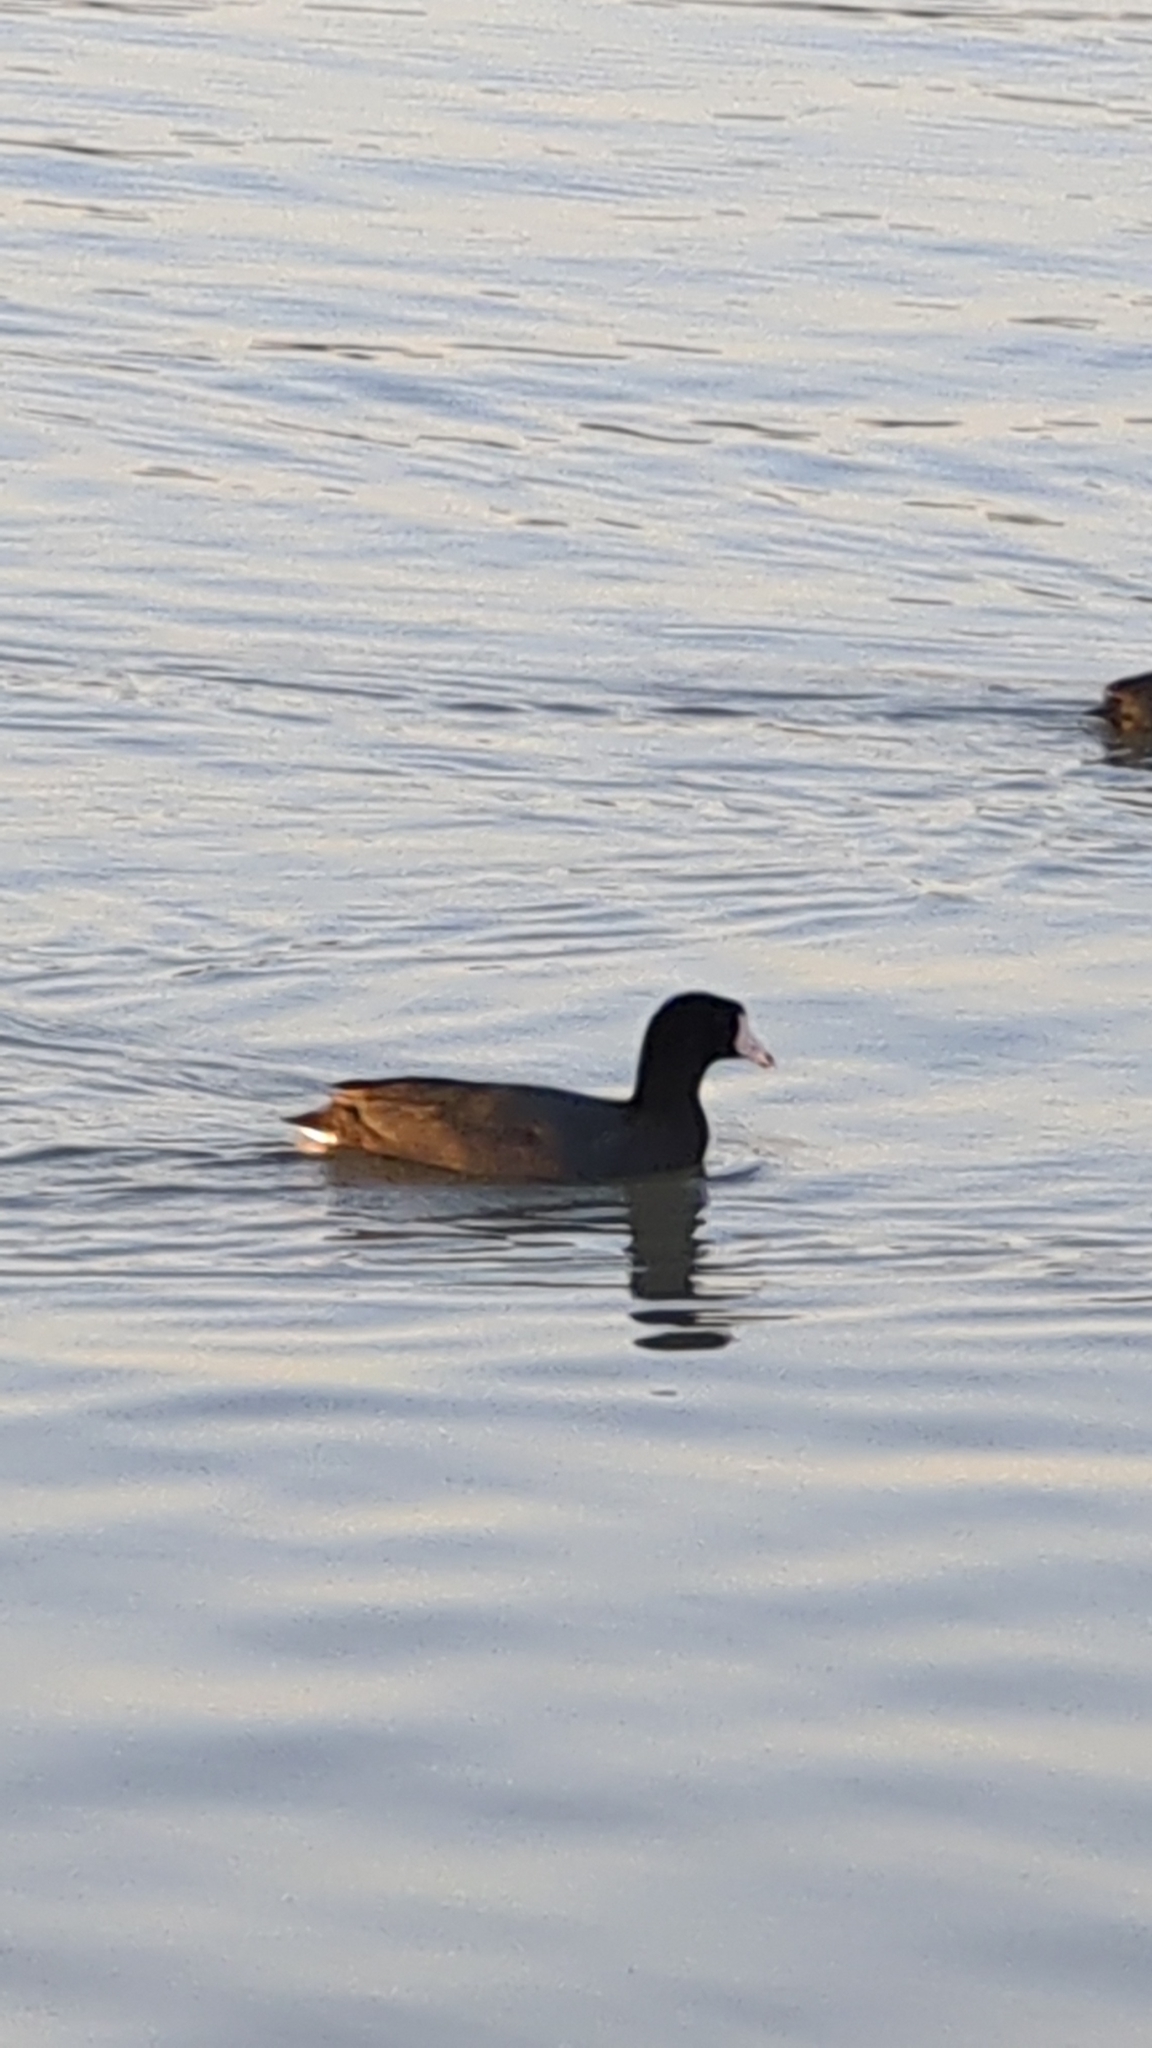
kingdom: Animalia
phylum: Chordata
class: Aves
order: Gruiformes
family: Rallidae
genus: Fulica
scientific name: Fulica americana
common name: American coot
